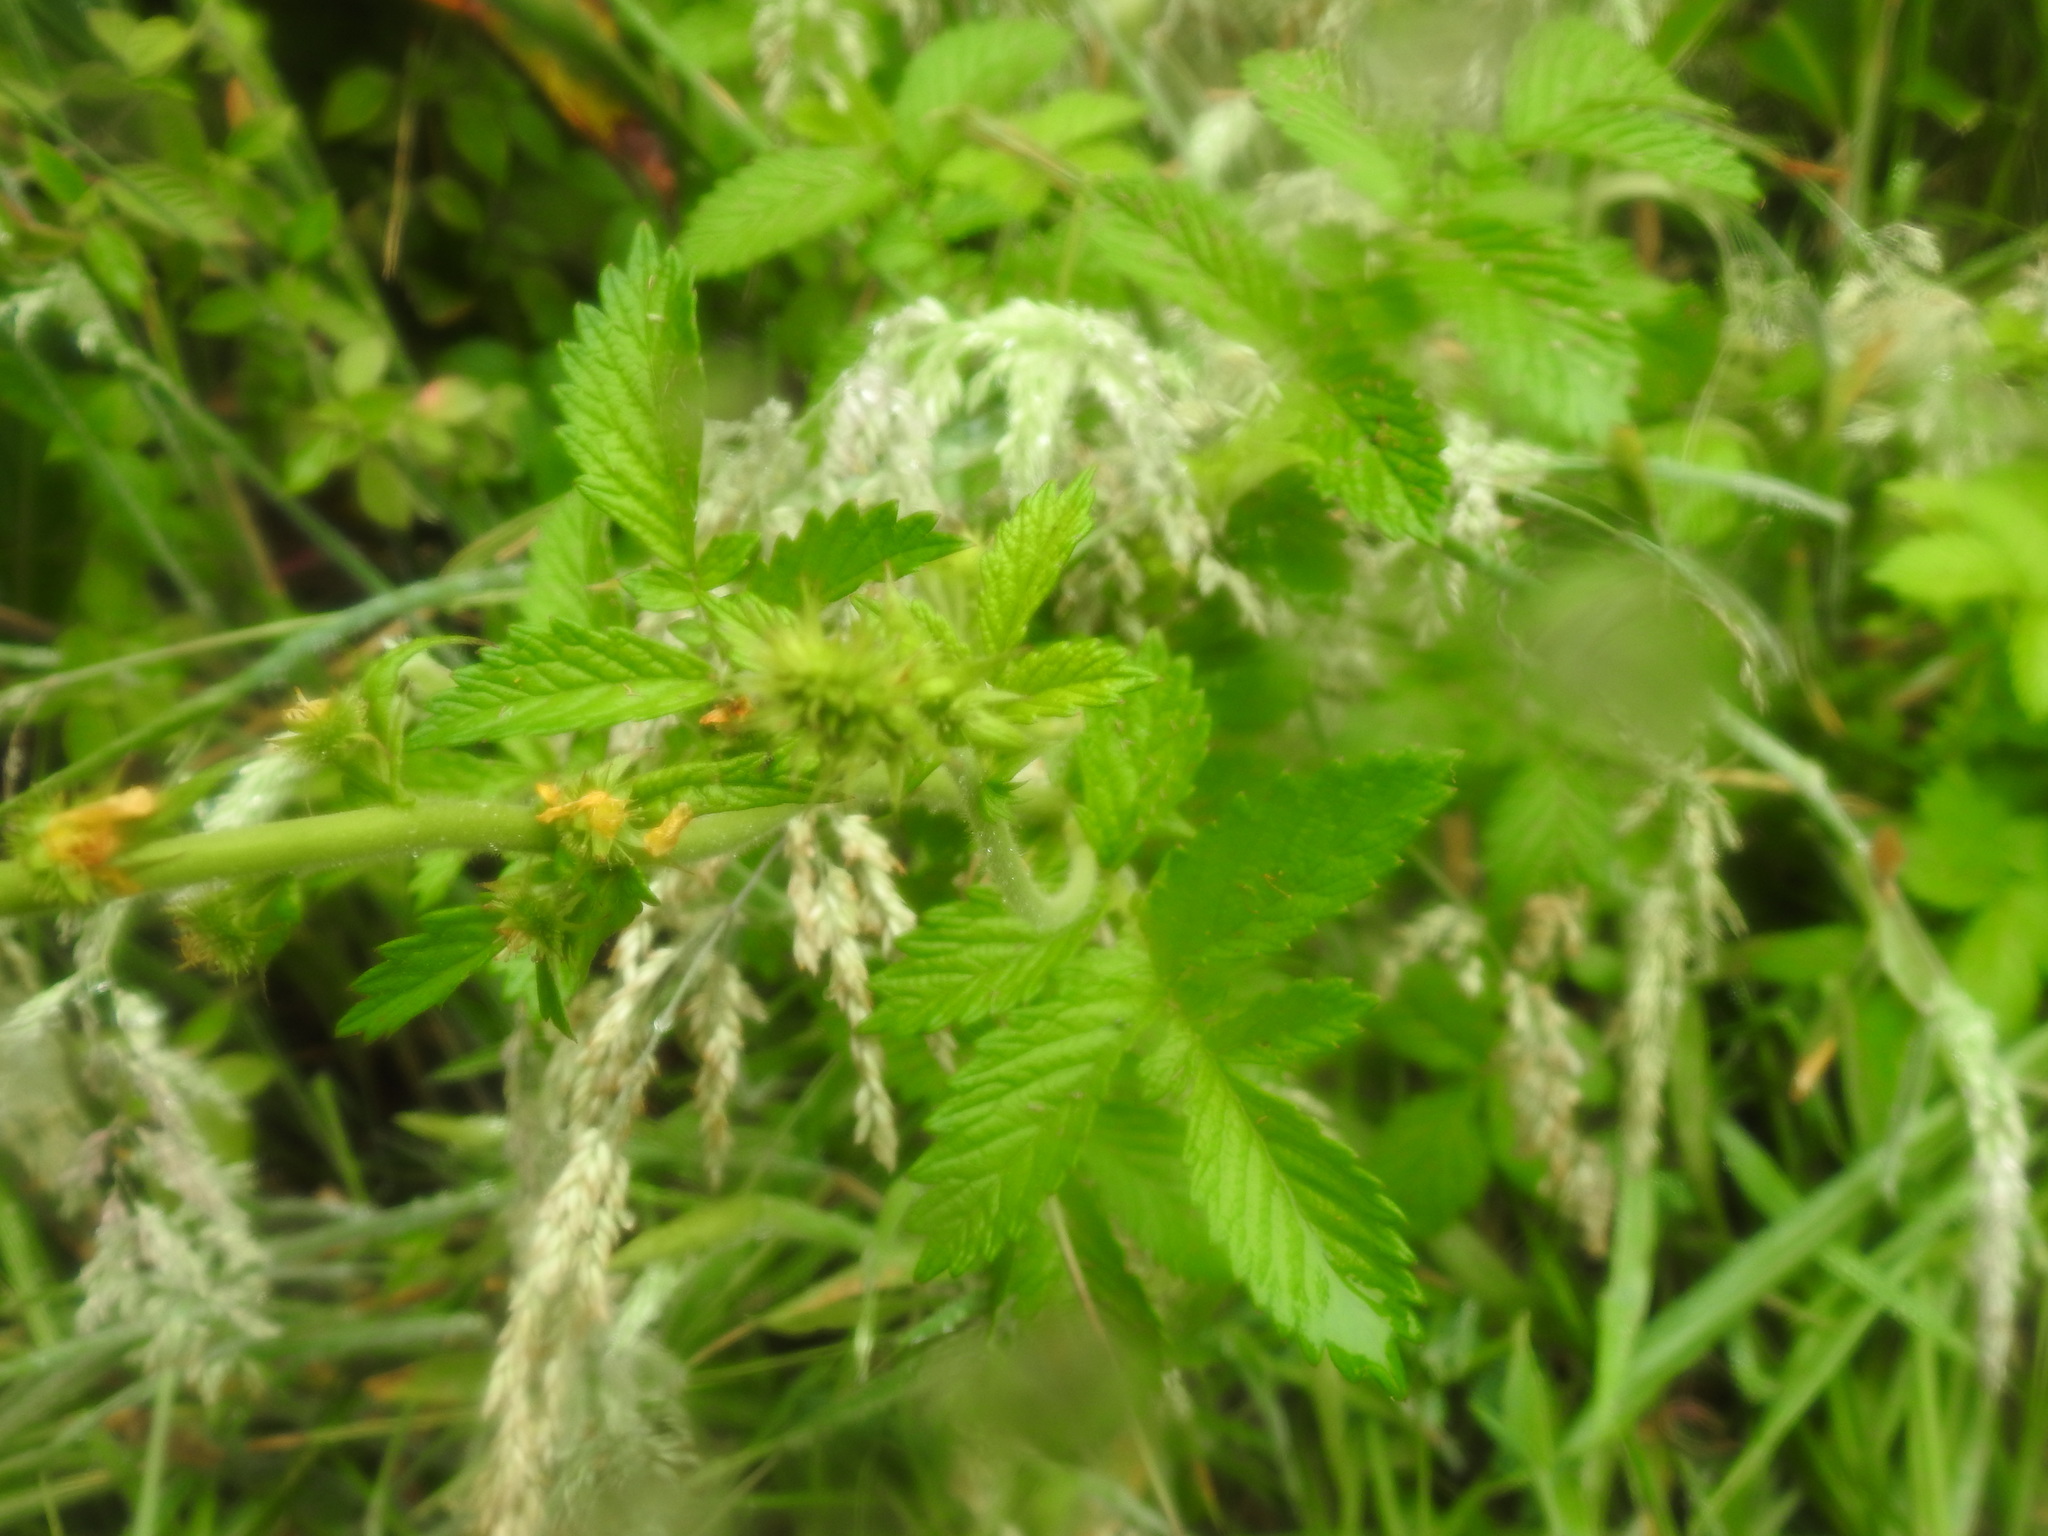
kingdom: Plantae
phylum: Tracheophyta
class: Magnoliopsida
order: Rosales
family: Rosaceae
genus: Agrimonia
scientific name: Agrimonia bracteata
